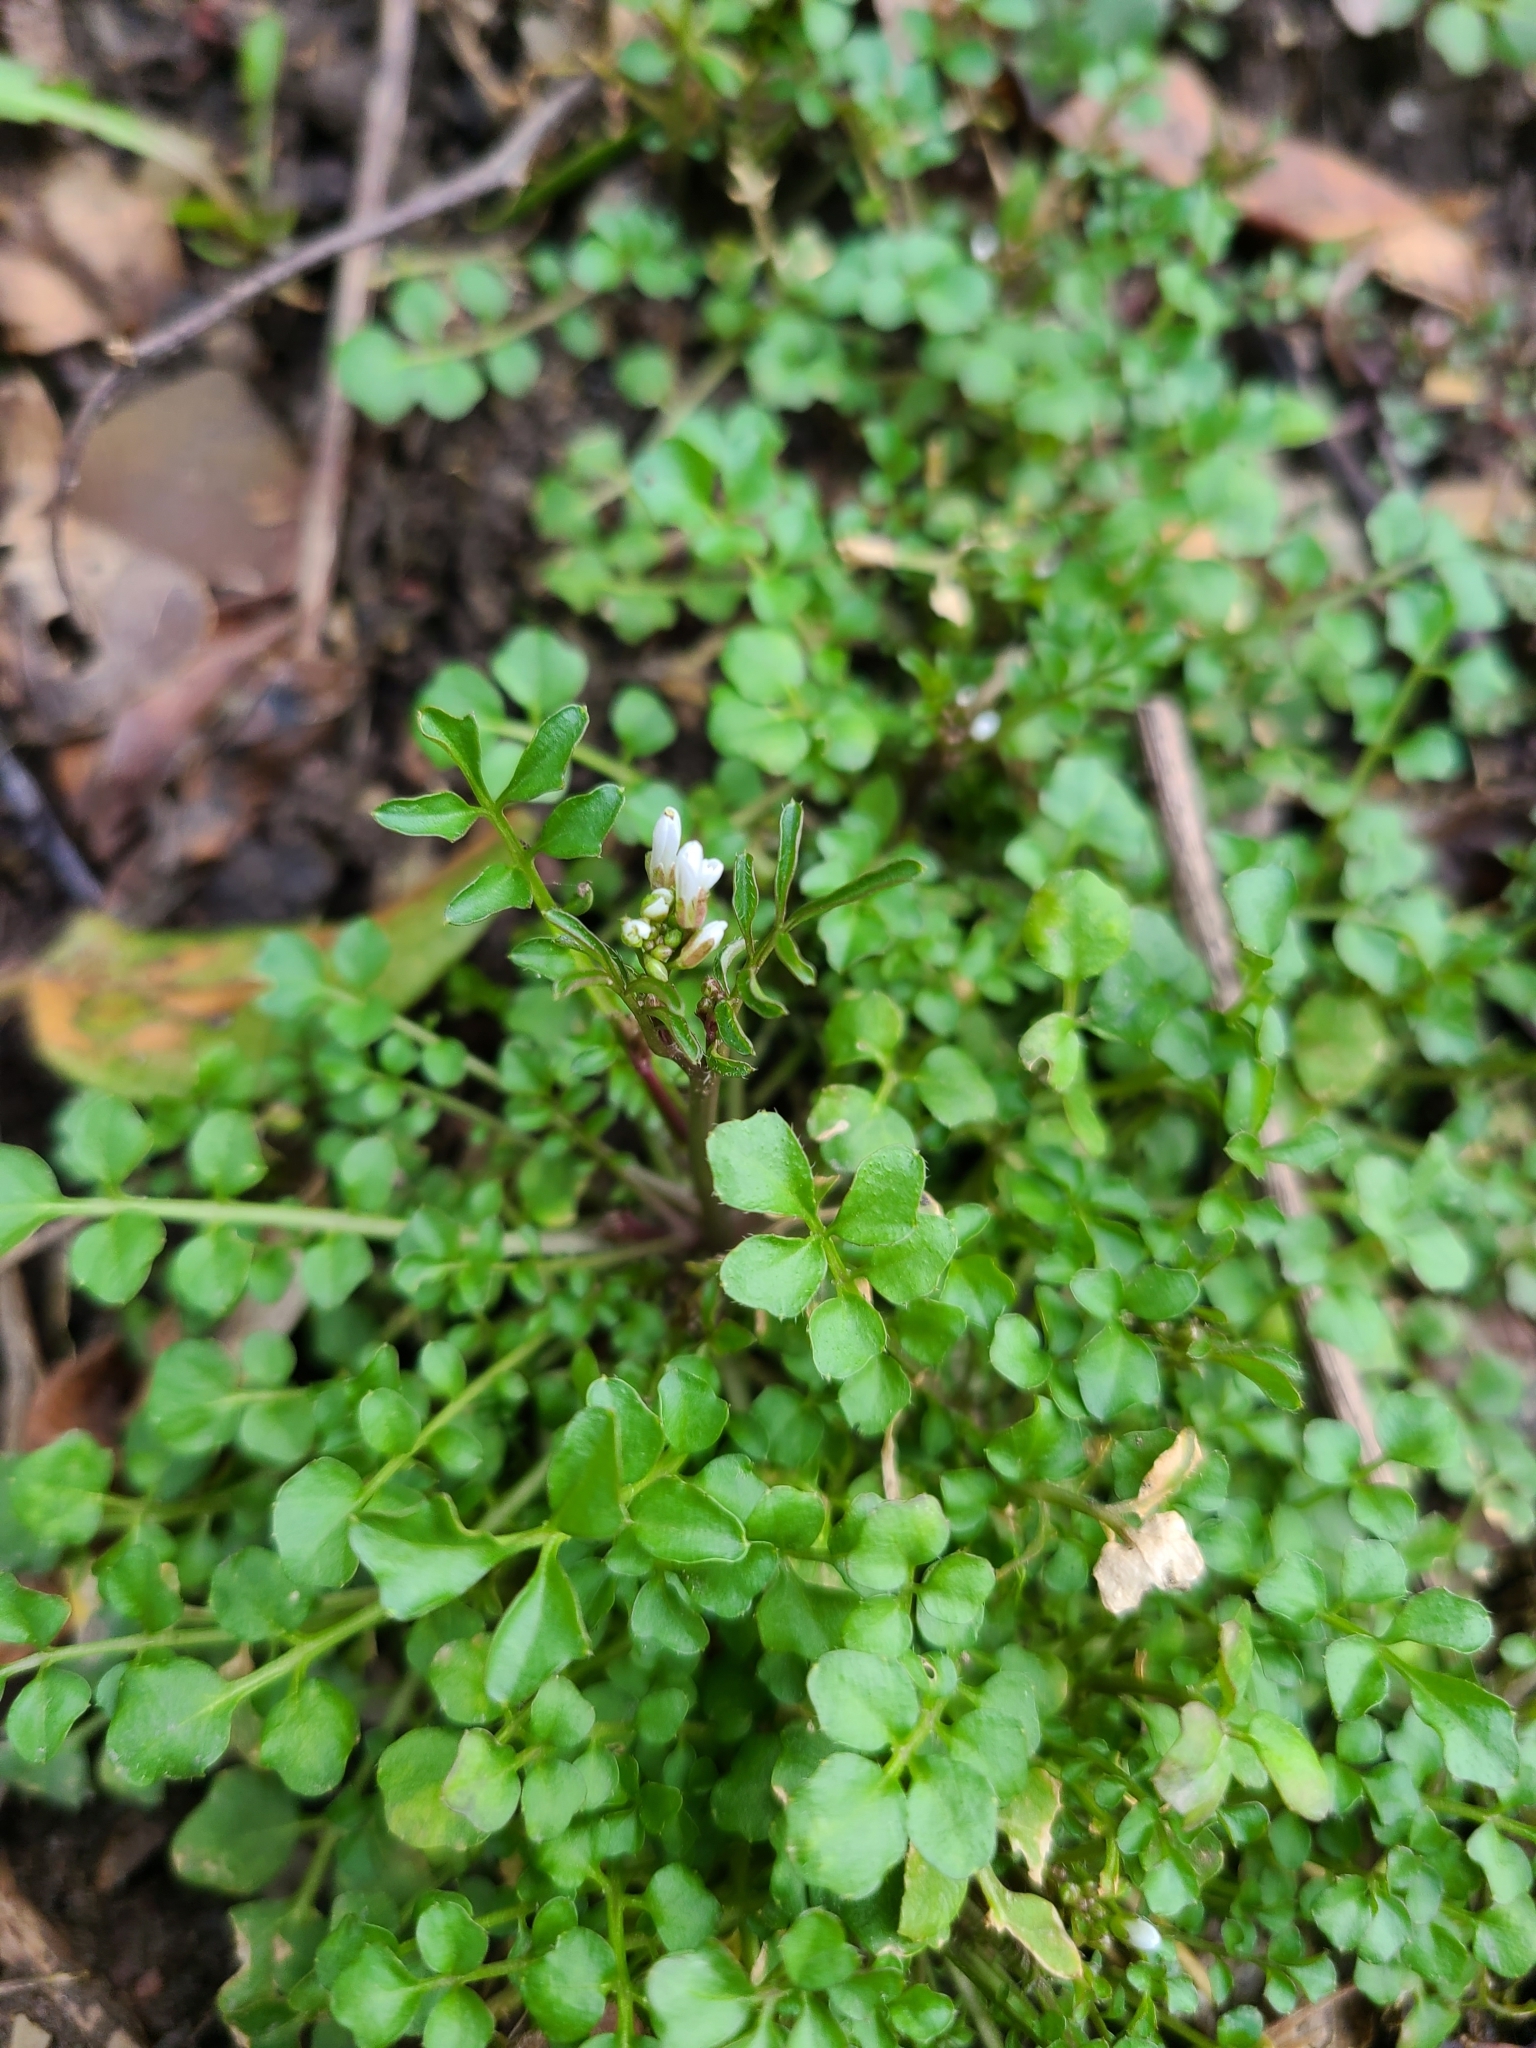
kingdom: Plantae
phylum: Tracheophyta
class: Magnoliopsida
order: Brassicales
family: Brassicaceae
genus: Cardamine
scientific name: Cardamine hirsuta
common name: Hairy bittercress
